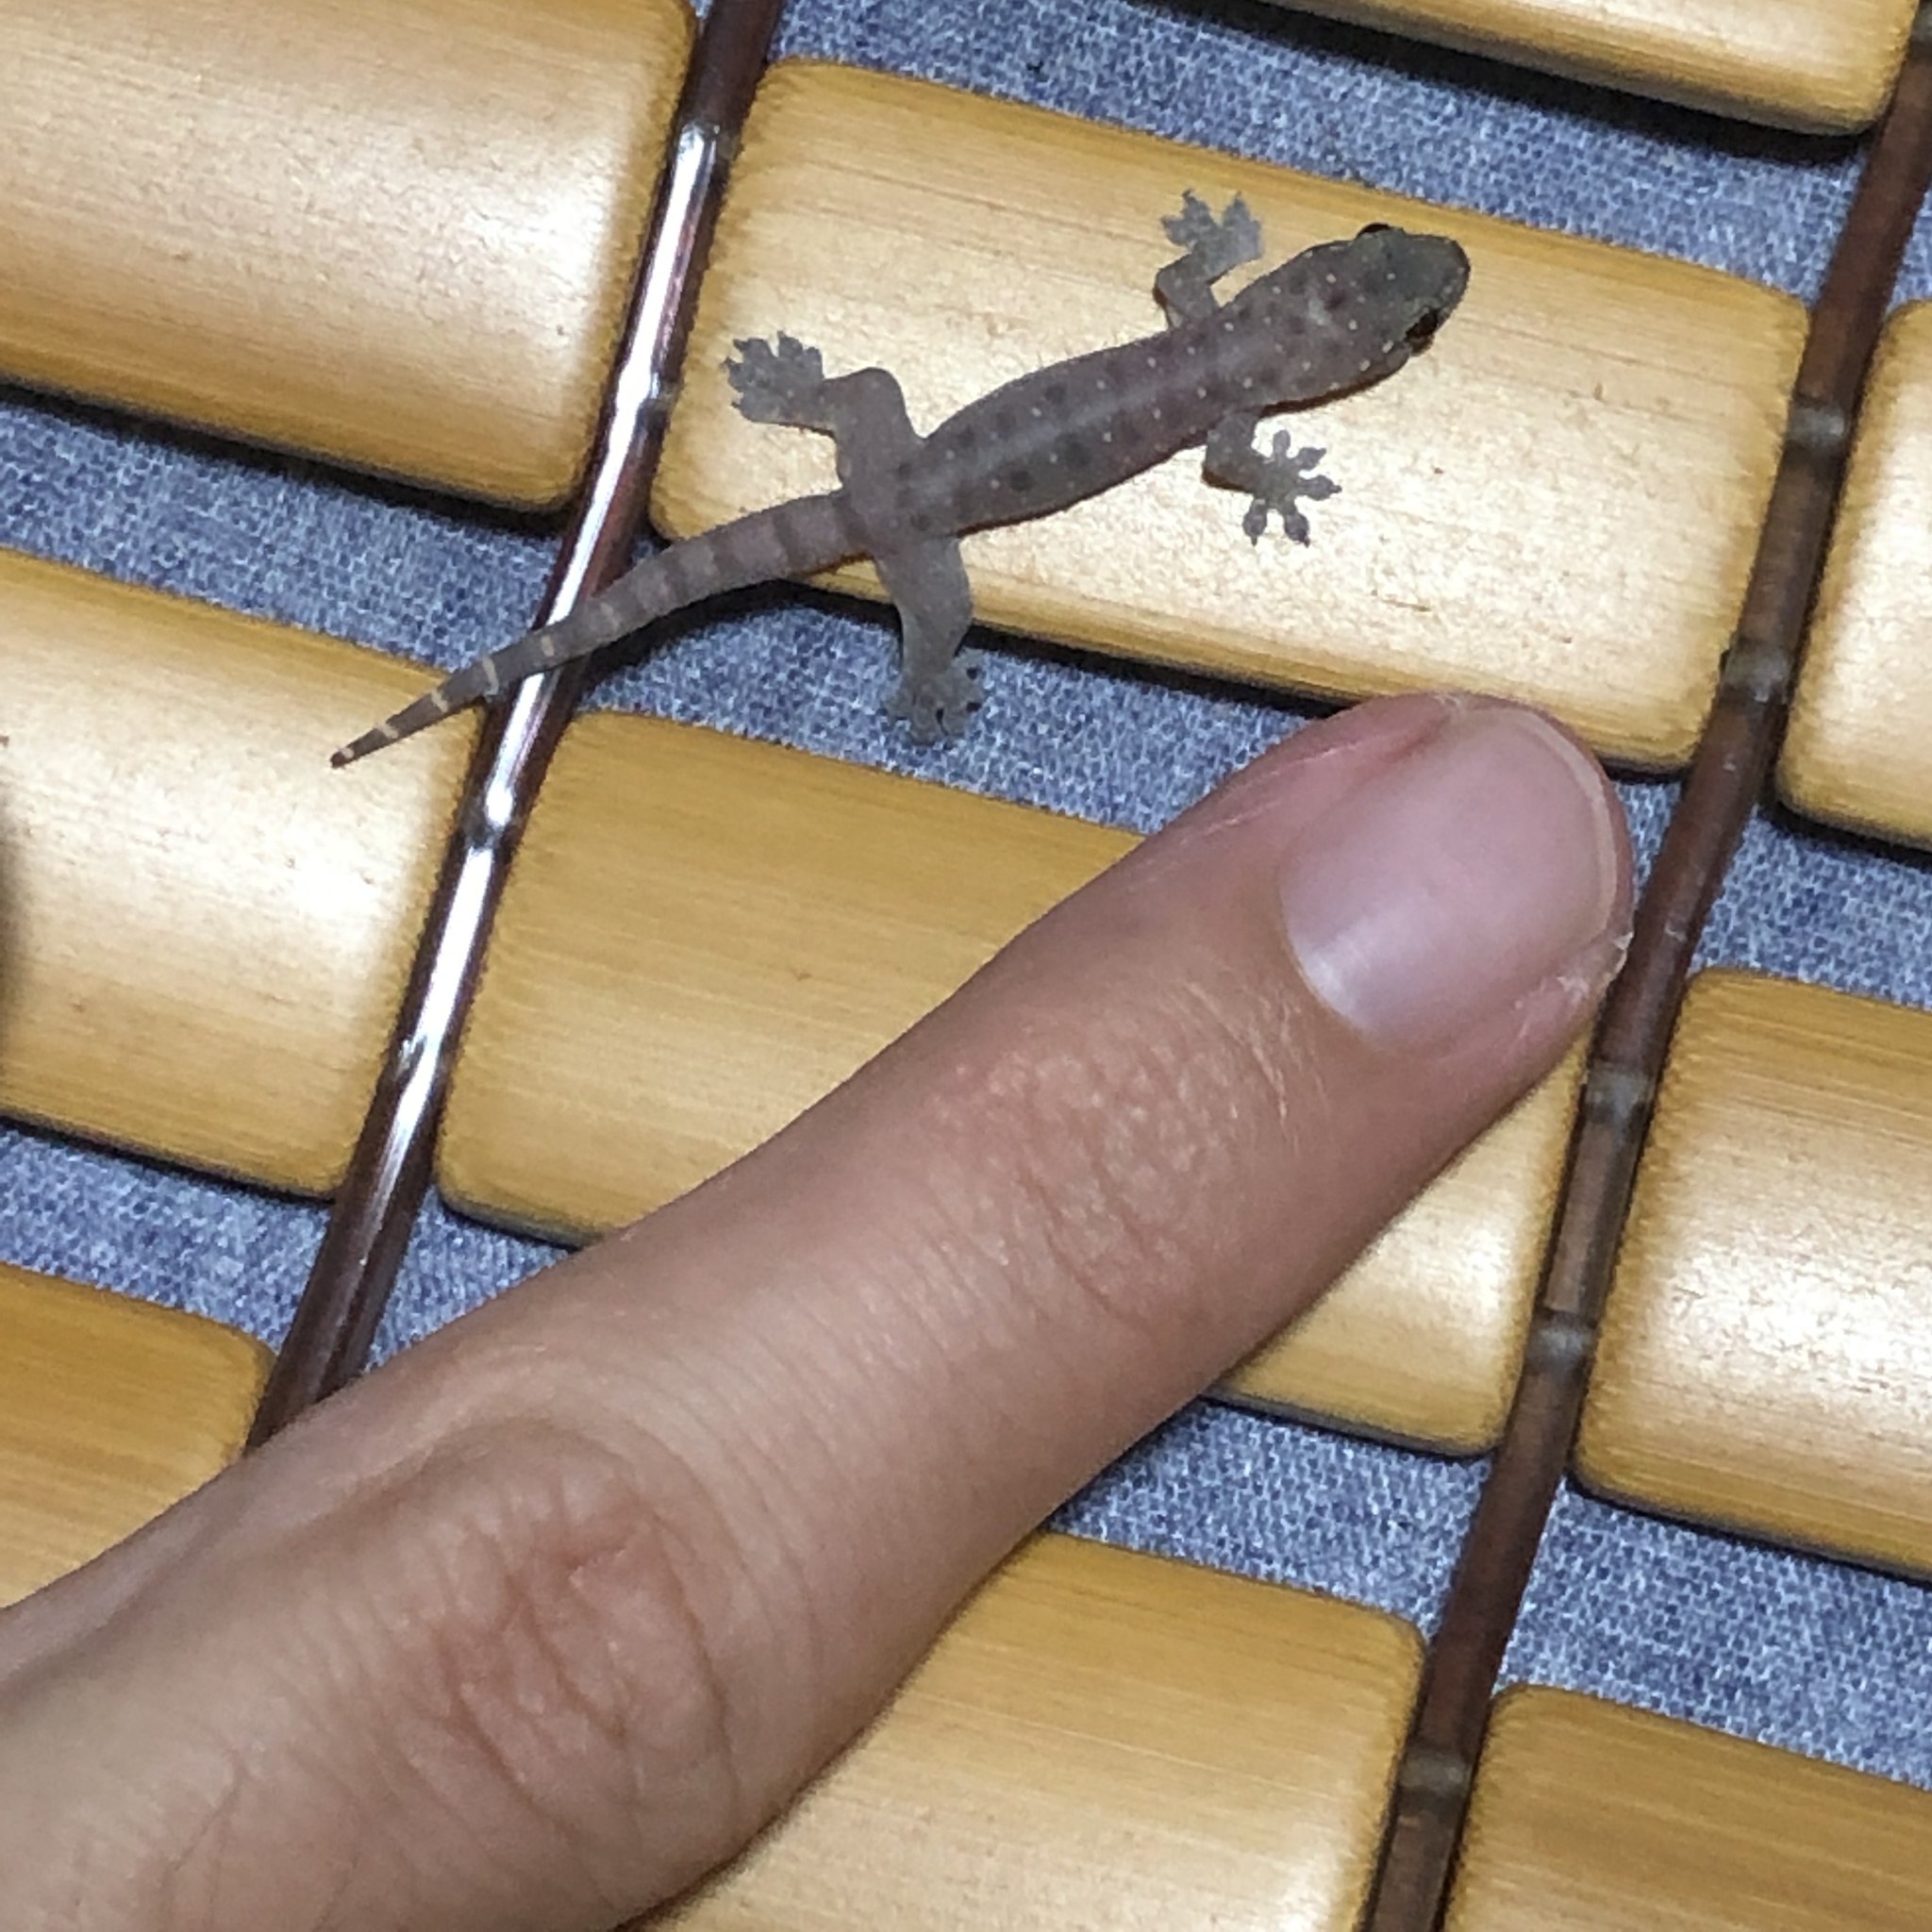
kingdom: Animalia
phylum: Chordata
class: Squamata
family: Gekkonidae
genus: Gehyra
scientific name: Gehyra mutilata
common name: Stump-toed gecko
